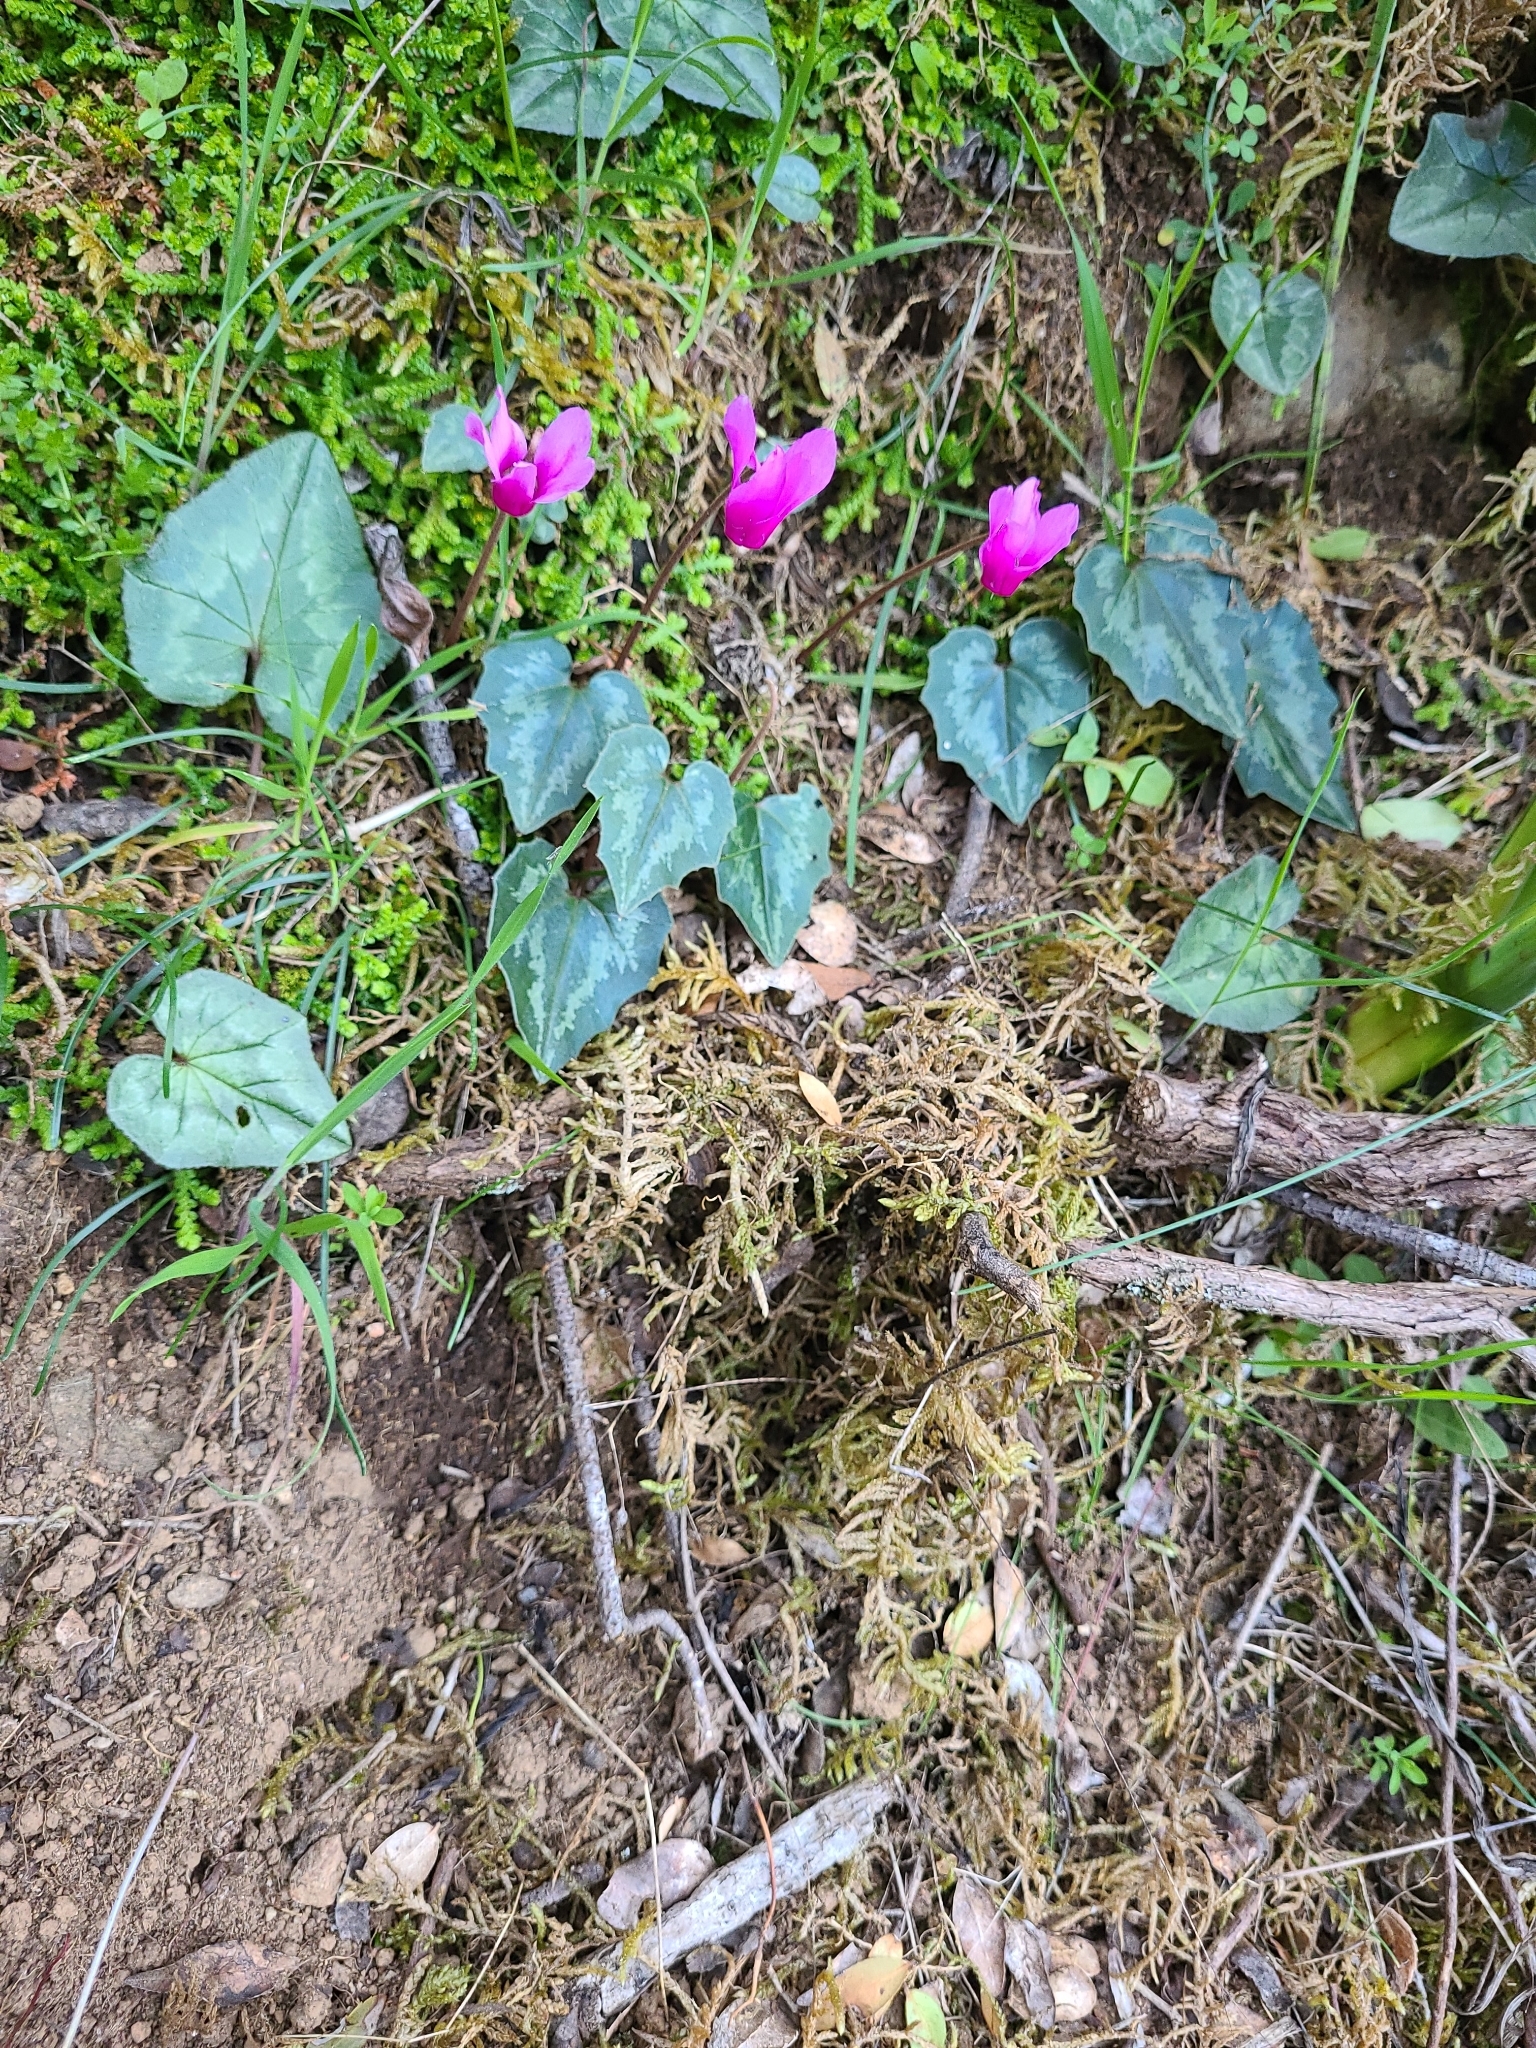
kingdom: Plantae
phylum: Tracheophyta
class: Magnoliopsida
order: Ericales
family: Primulaceae
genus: Cyclamen
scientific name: Cyclamen repandum
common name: Spring sowbread
